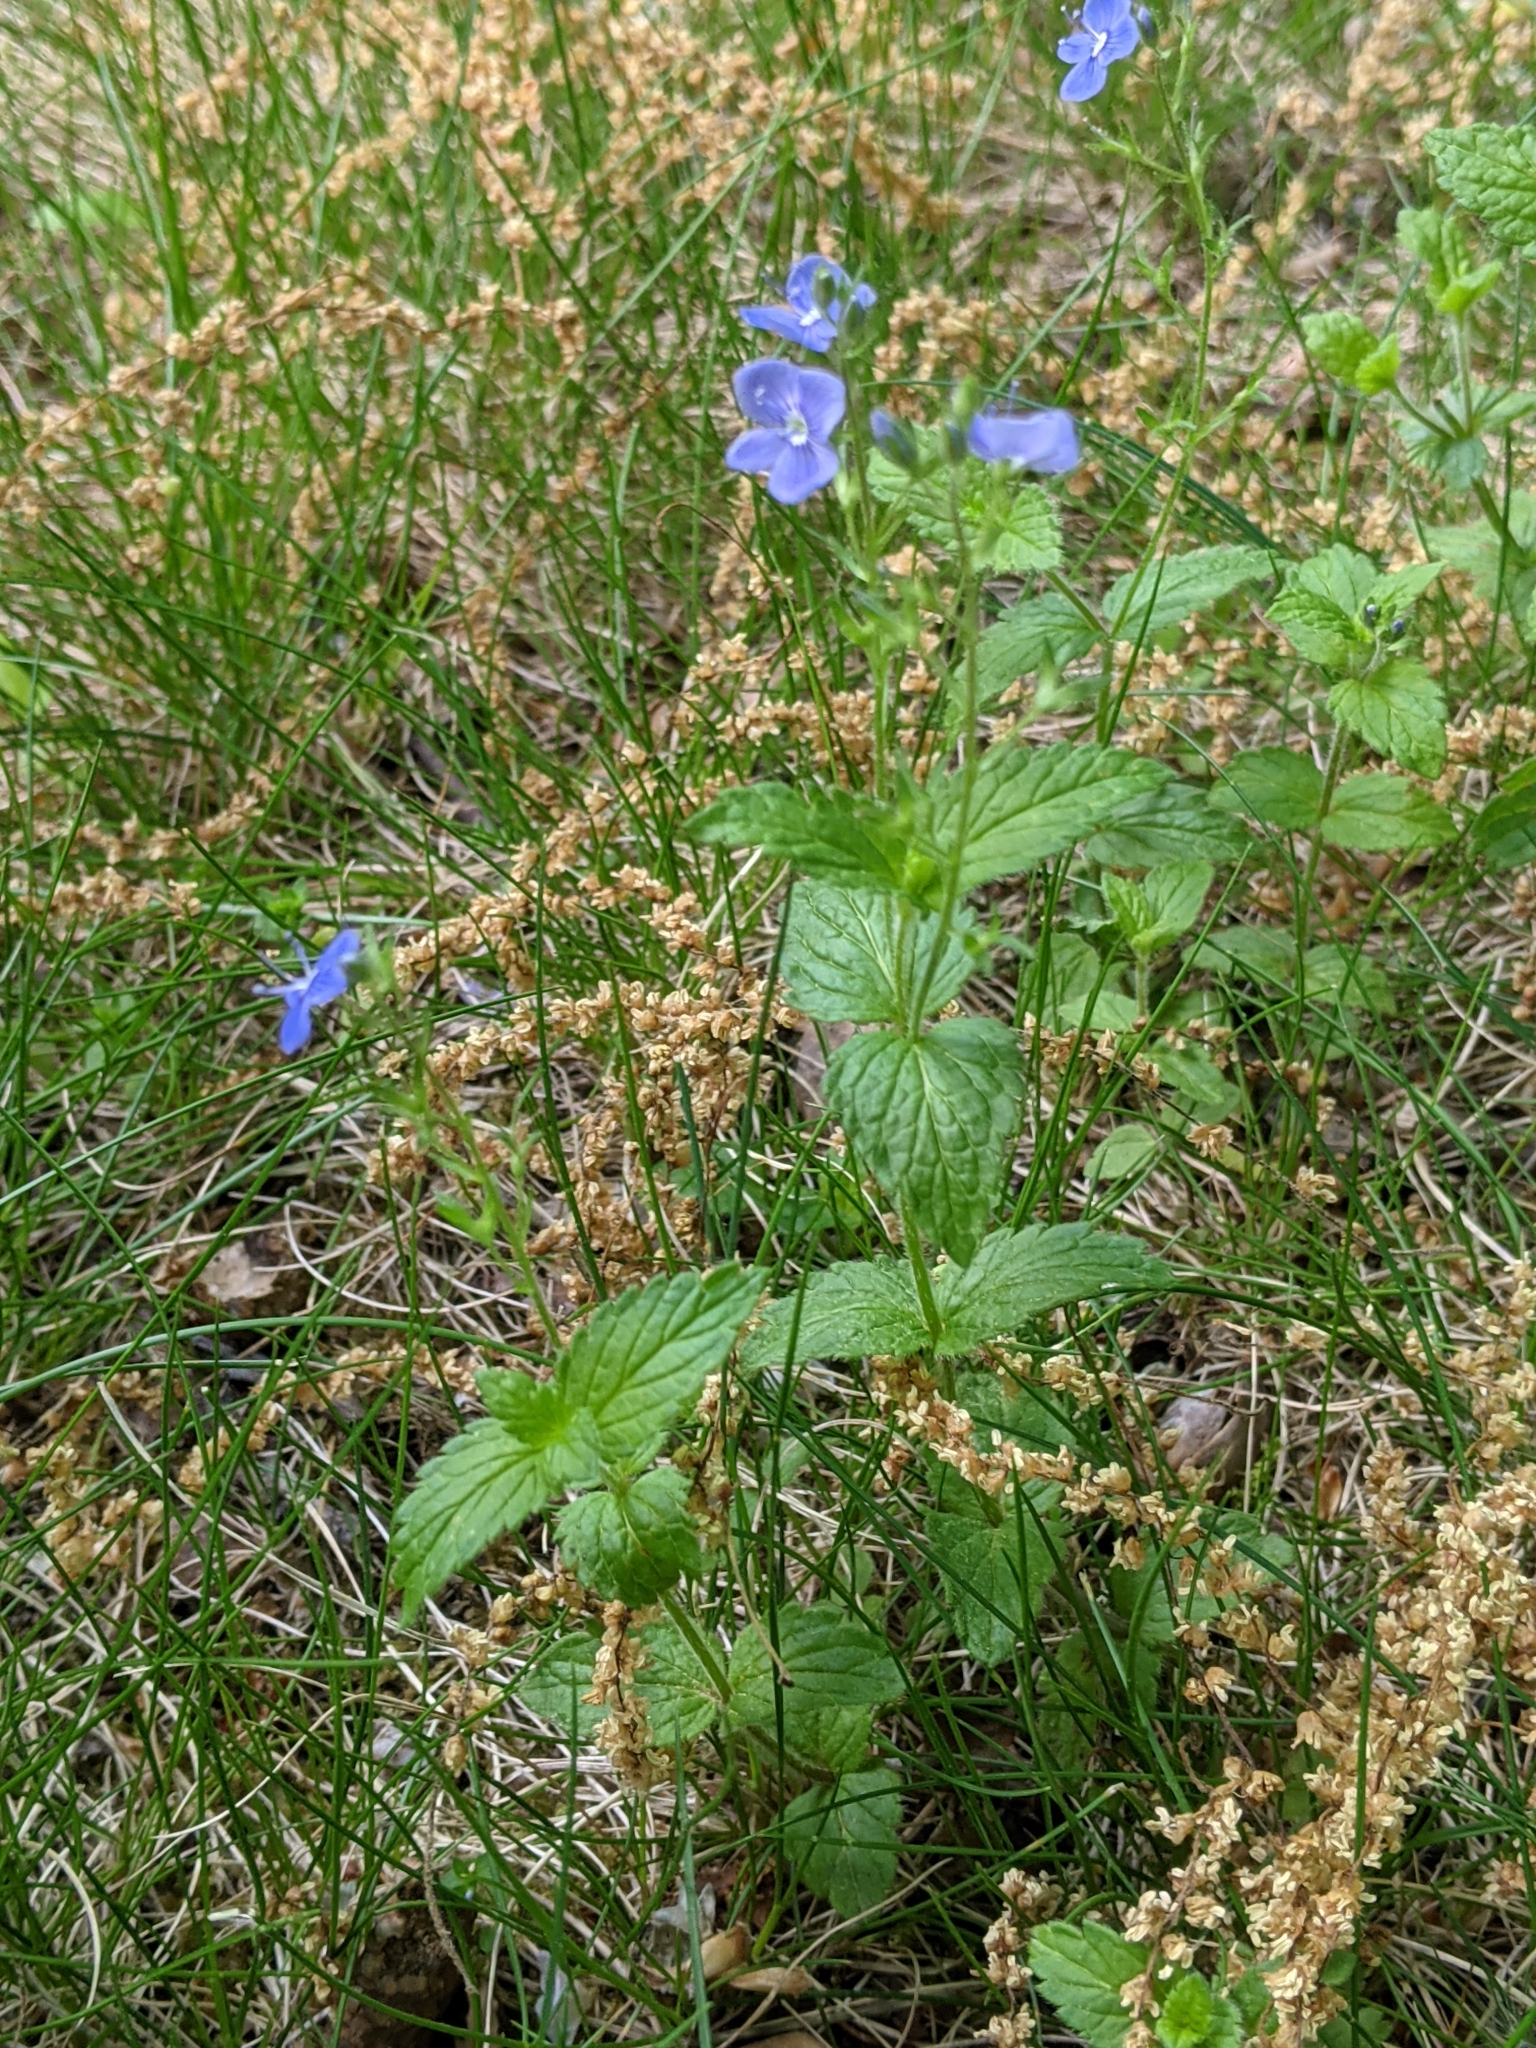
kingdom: Plantae
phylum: Tracheophyta
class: Magnoliopsida
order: Lamiales
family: Plantaginaceae
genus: Veronica
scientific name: Veronica chamaedrys
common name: Germander speedwell
